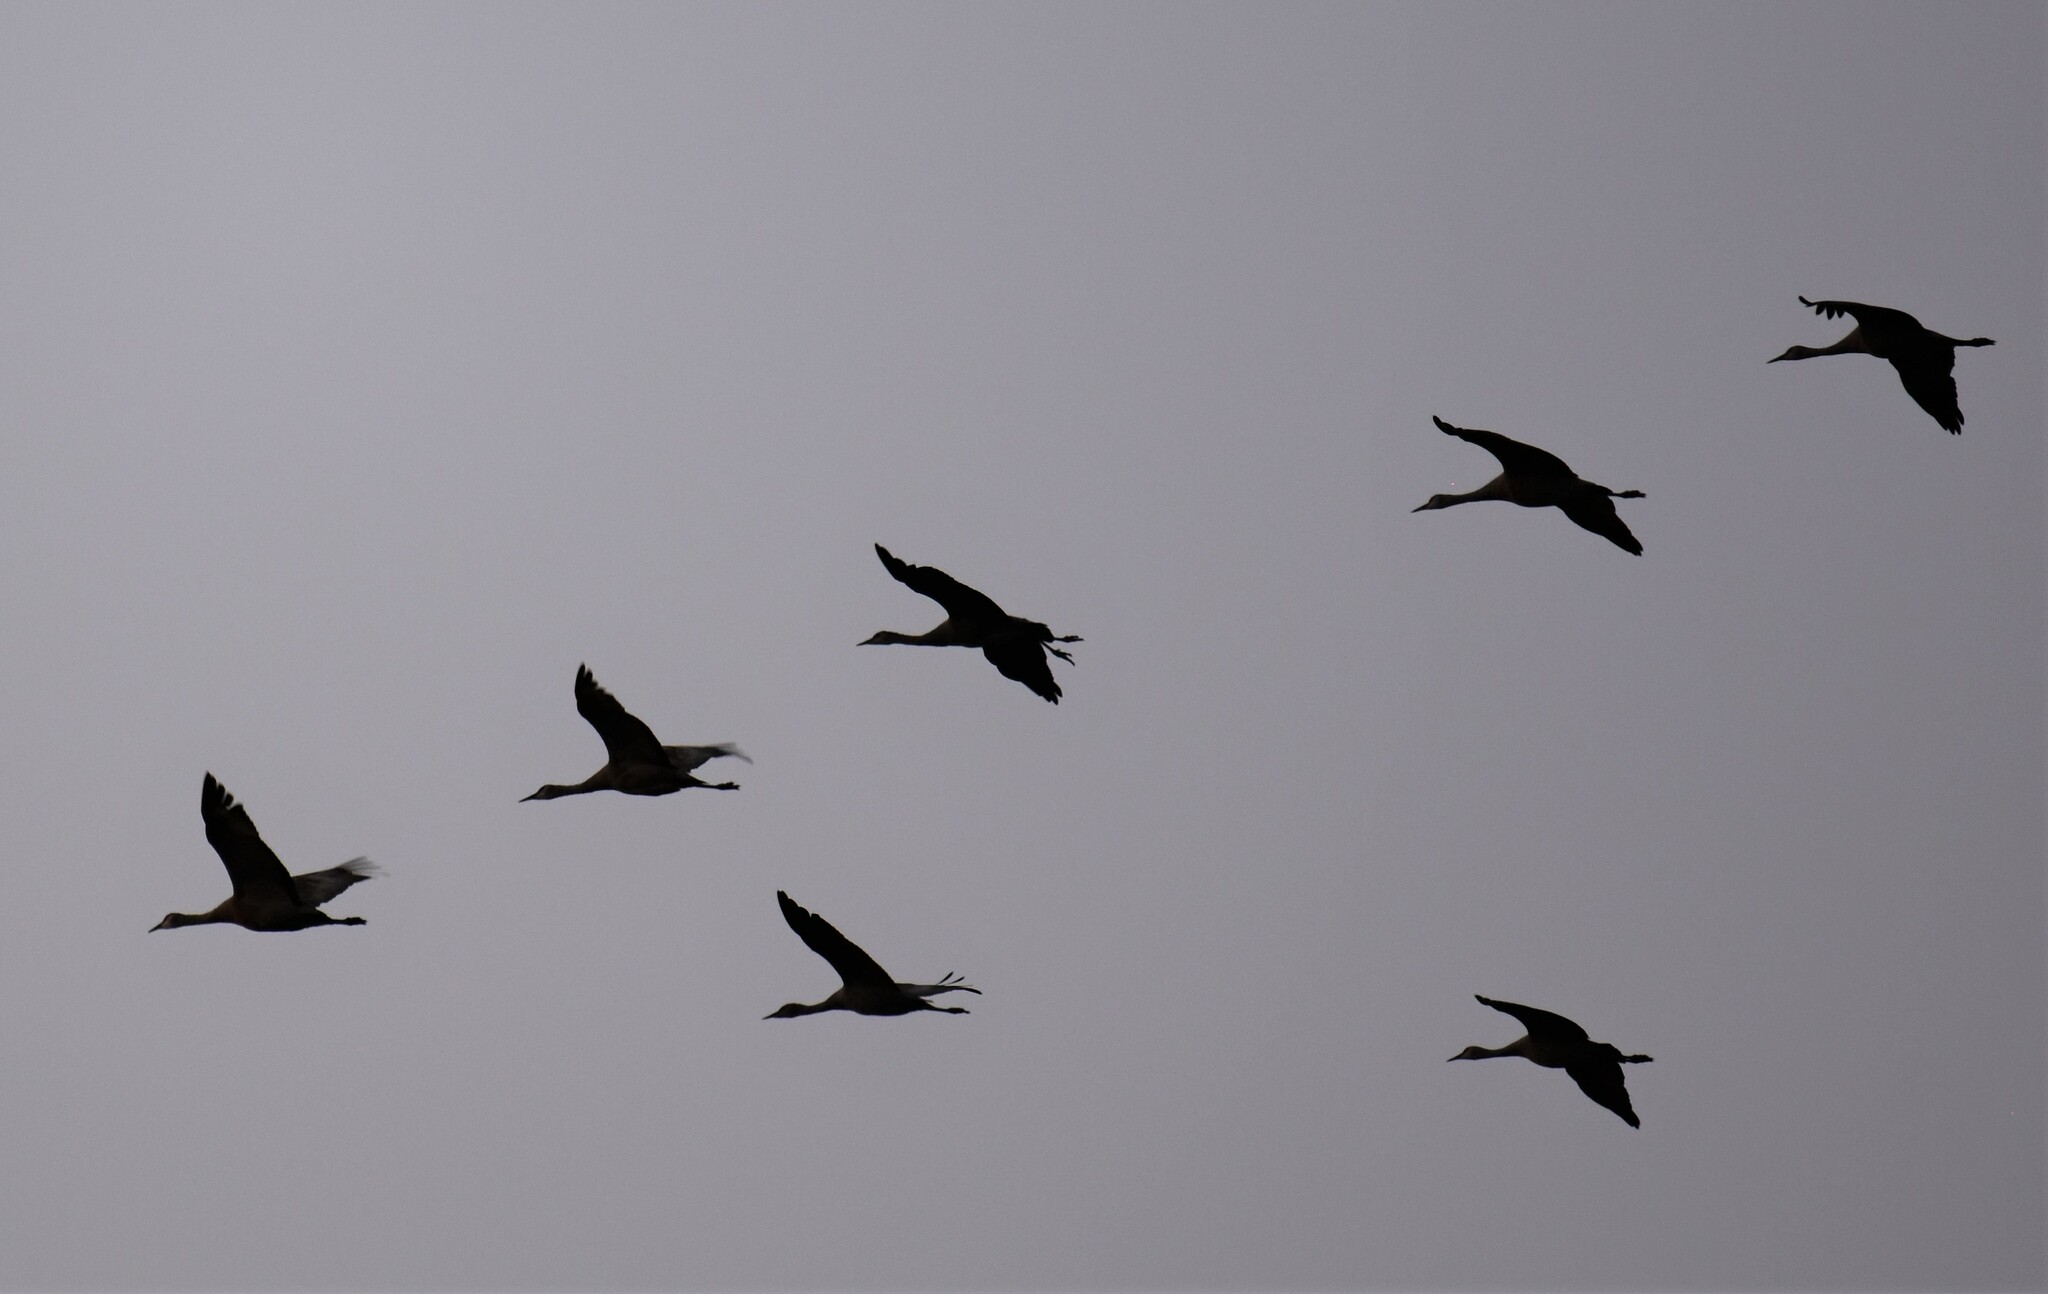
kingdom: Animalia
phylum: Chordata
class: Aves
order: Gruiformes
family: Gruidae
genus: Grus
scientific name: Grus canadensis
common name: Sandhill crane
